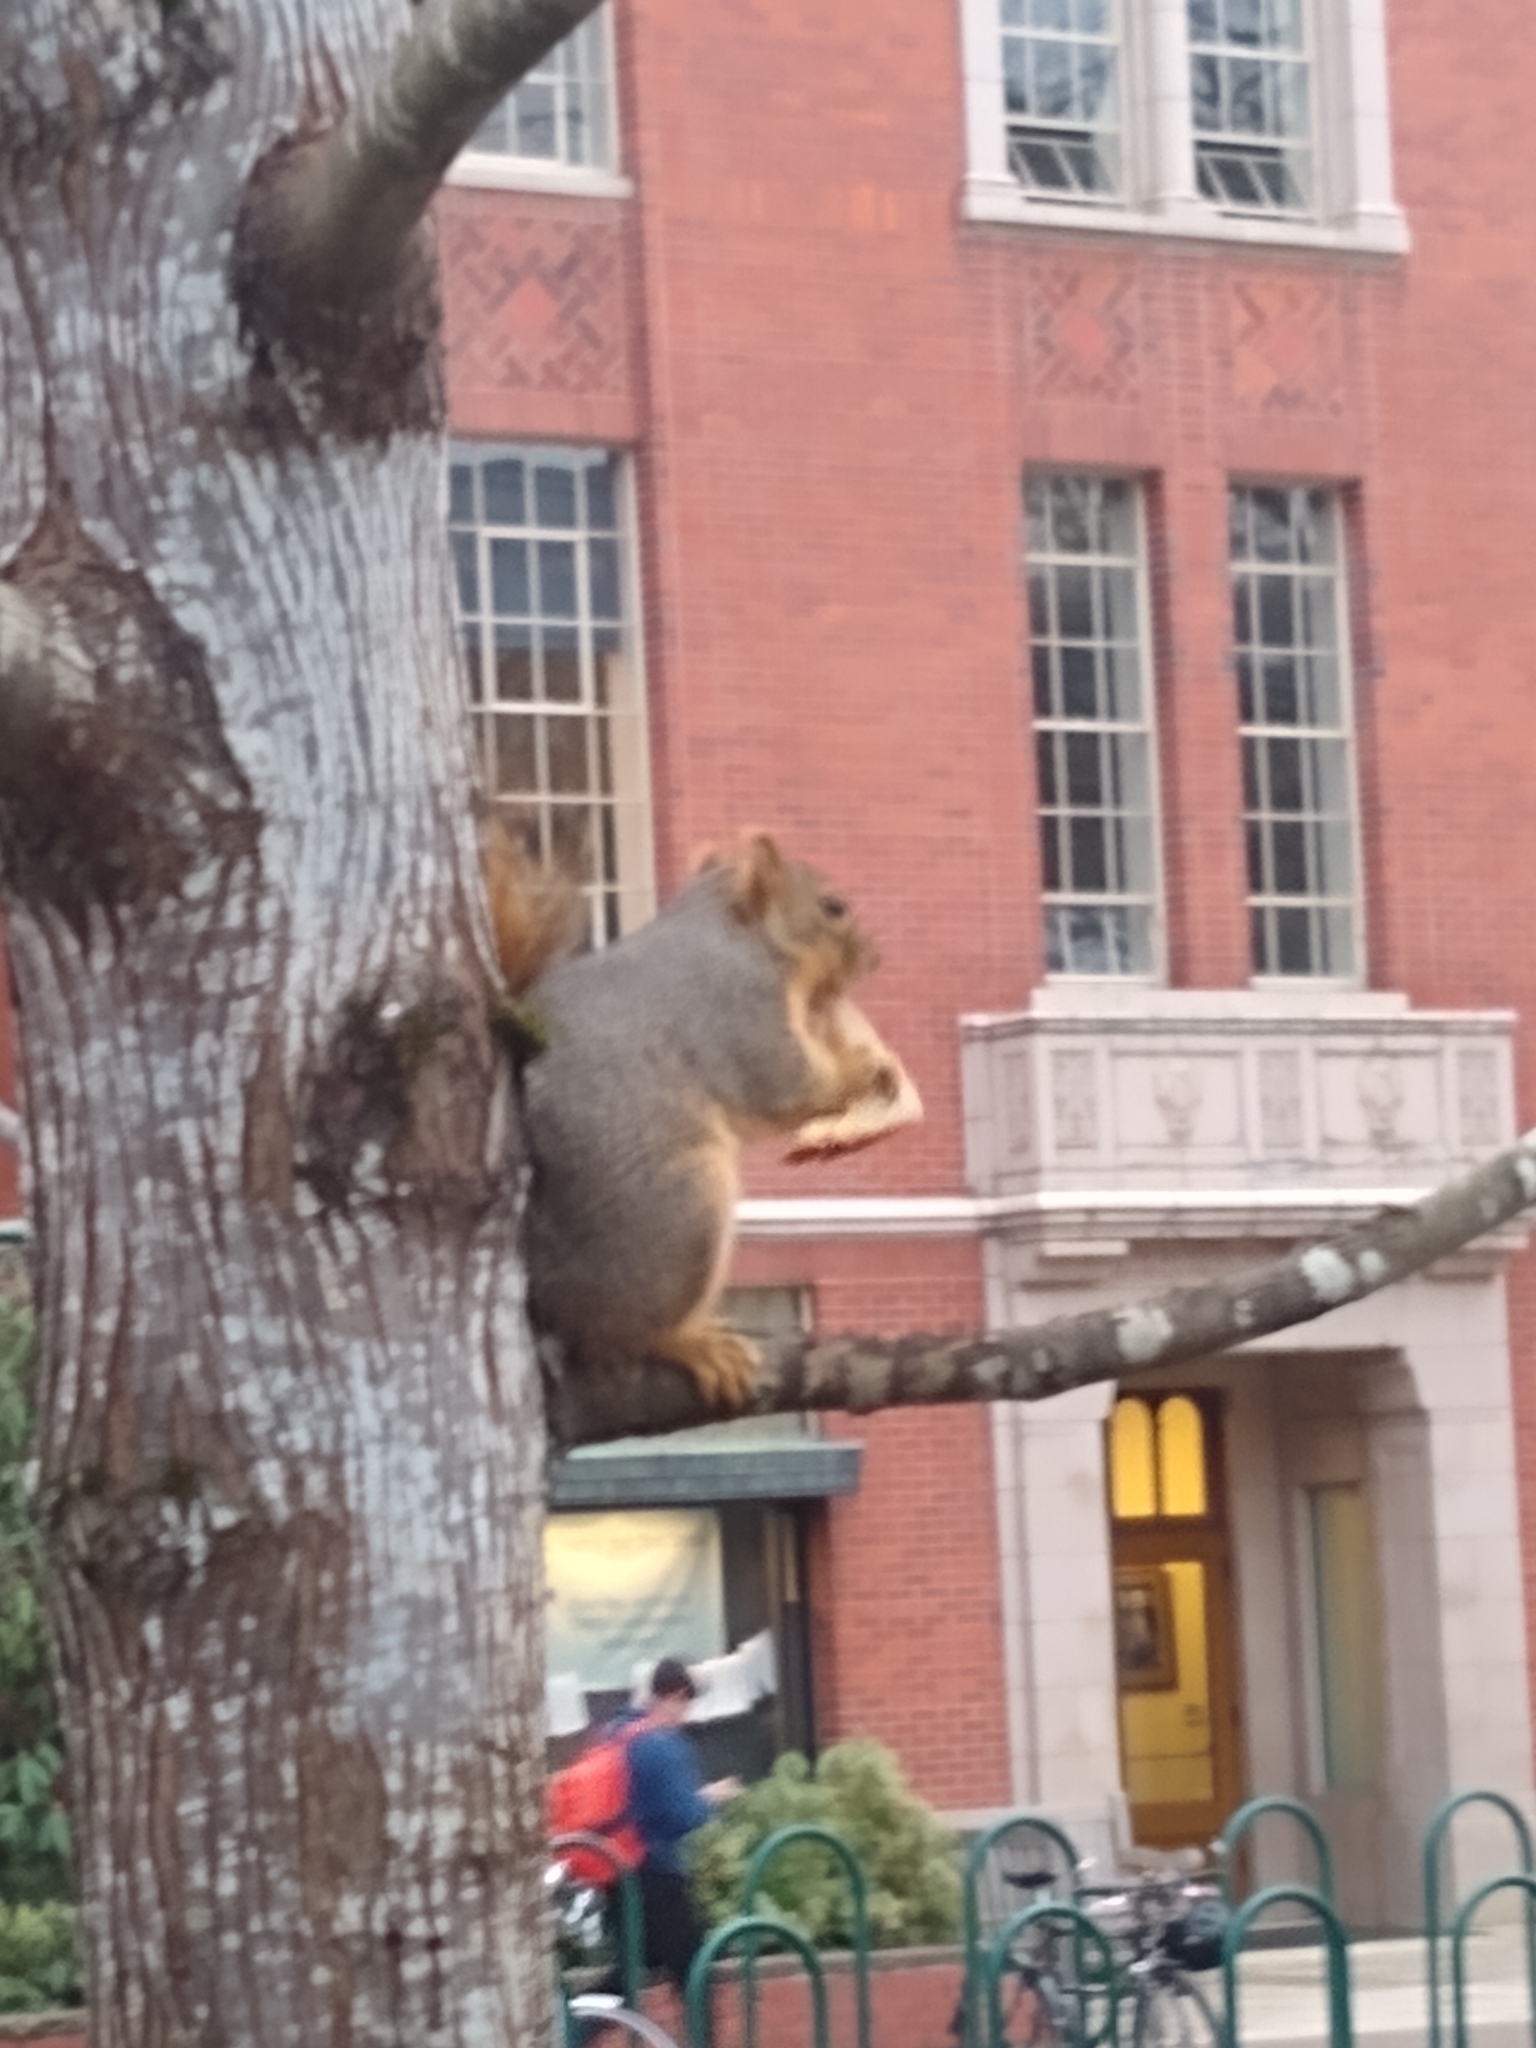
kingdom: Animalia
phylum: Chordata
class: Mammalia
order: Rodentia
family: Sciuridae
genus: Sciurus
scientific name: Sciurus niger
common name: Fox squirrel
